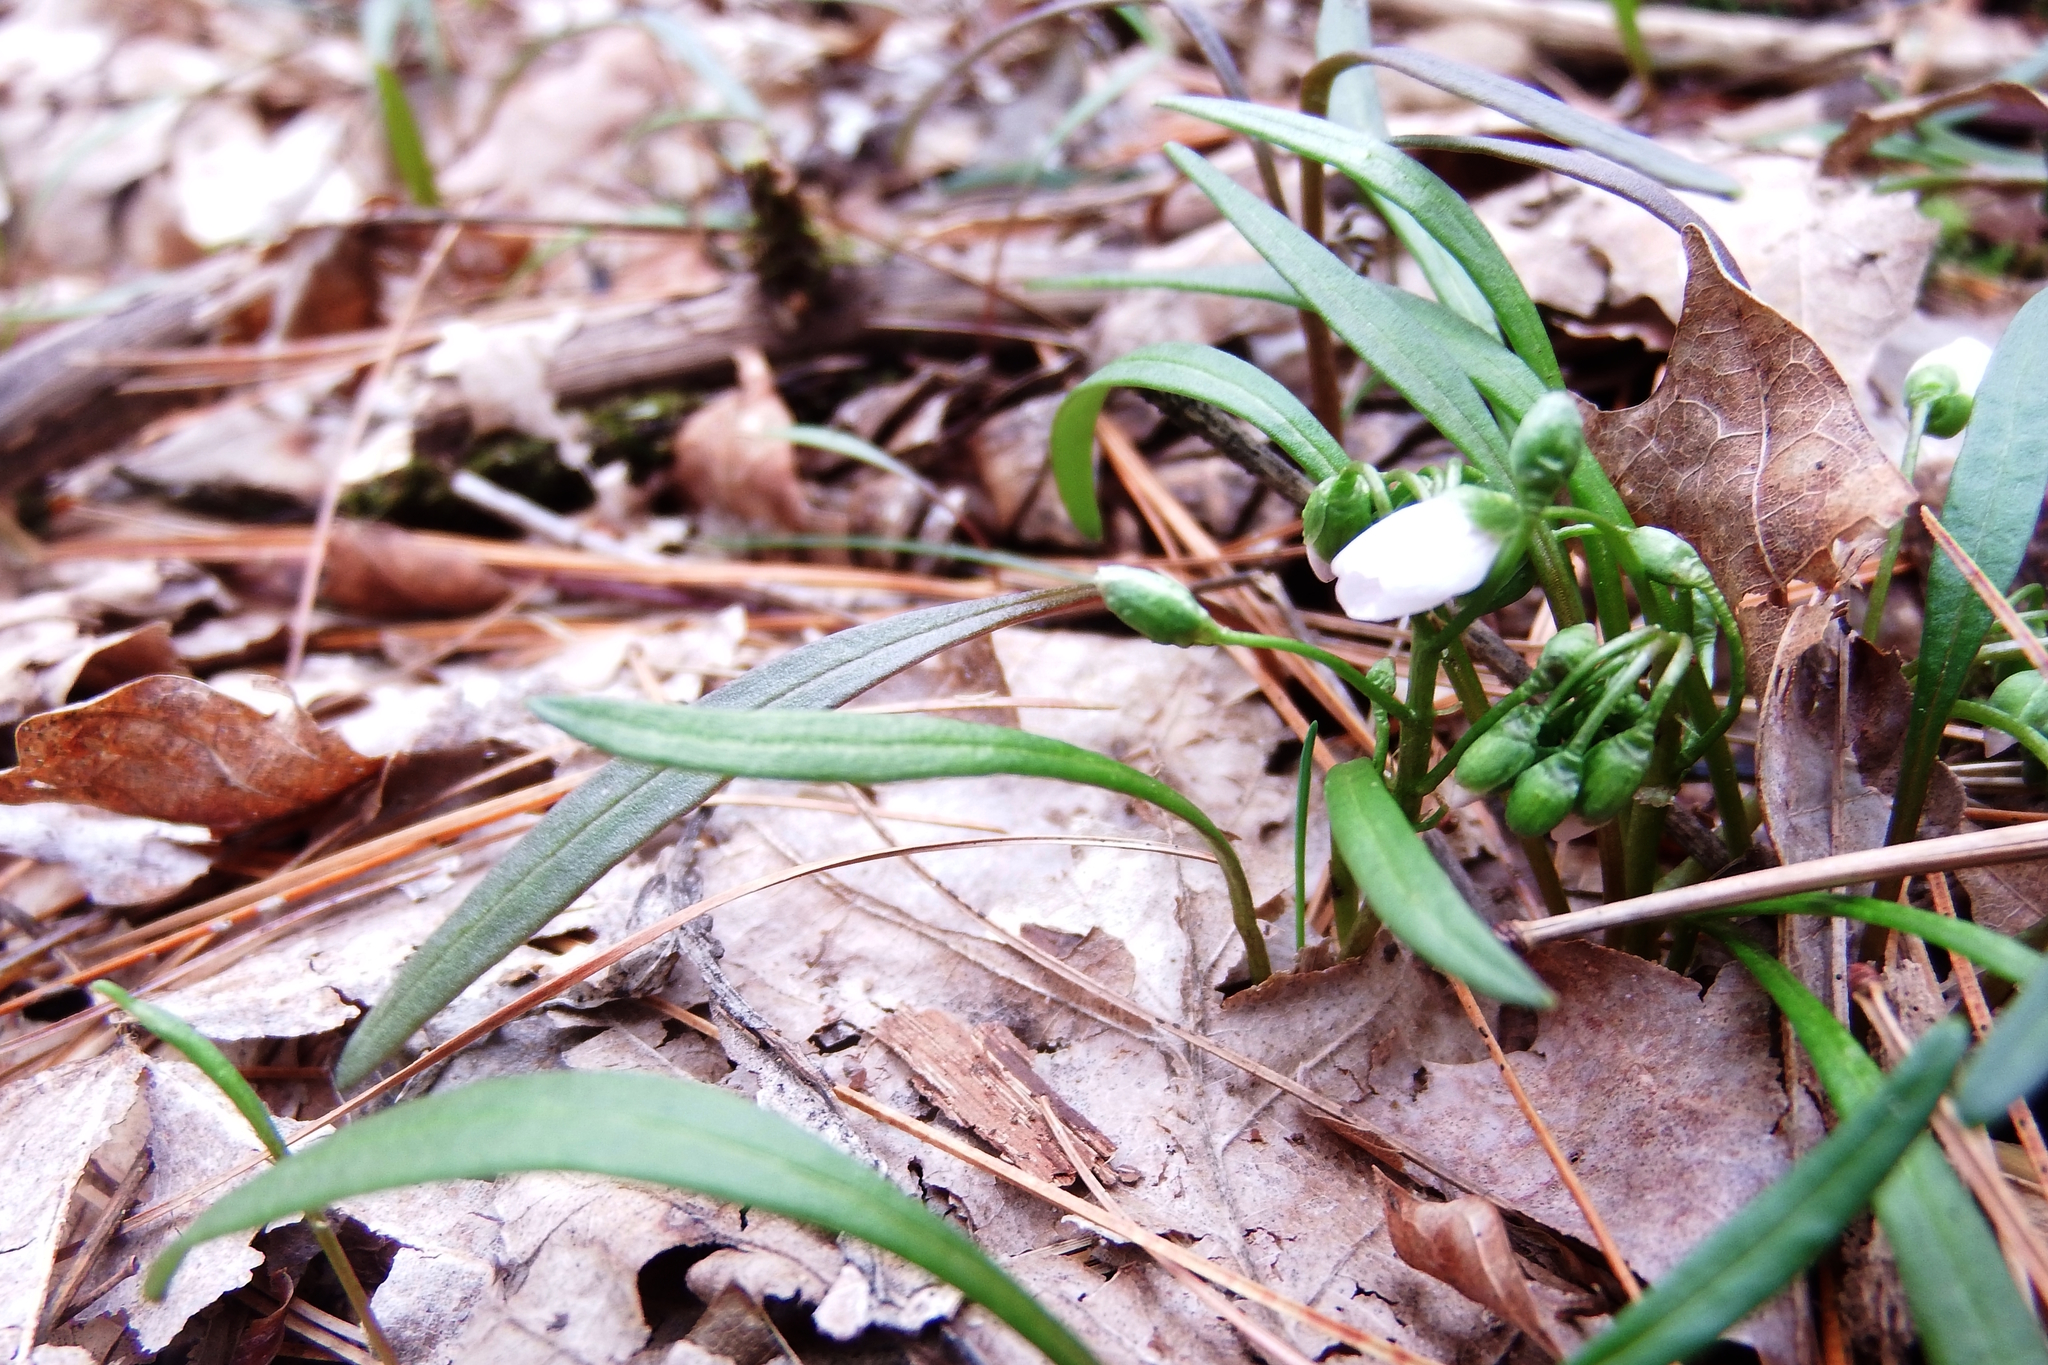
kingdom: Plantae
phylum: Tracheophyta
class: Magnoliopsida
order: Caryophyllales
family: Montiaceae
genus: Claytonia
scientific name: Claytonia virginica
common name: Virginia springbeauty
